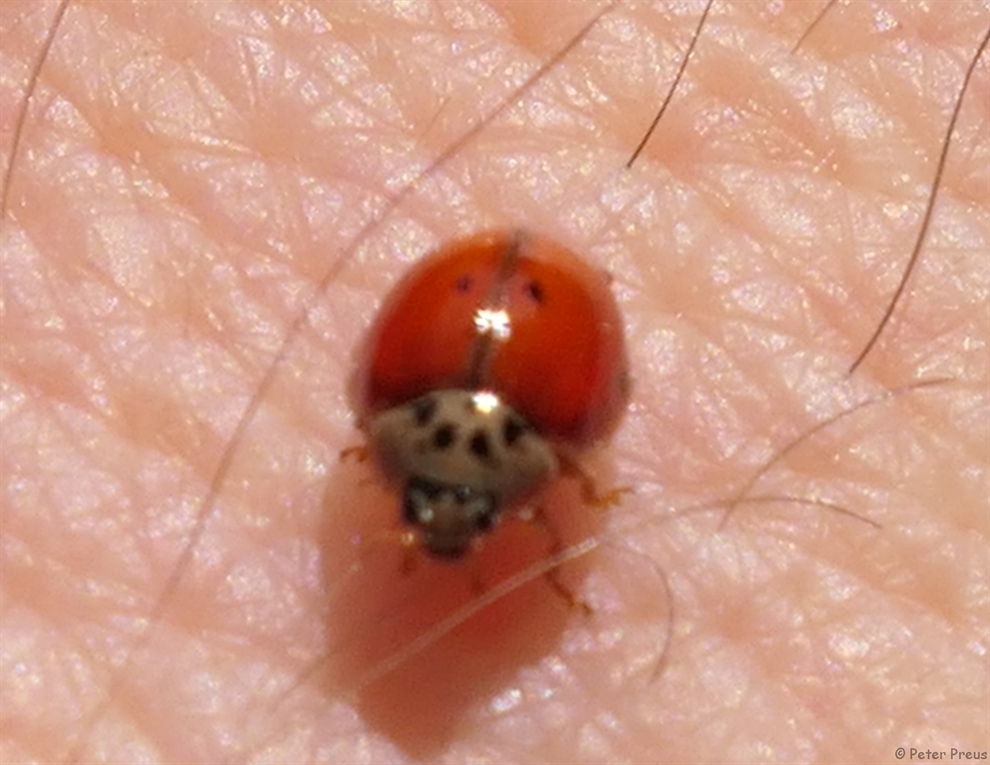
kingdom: Animalia
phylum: Arthropoda
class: Insecta
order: Coleoptera
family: Coccinellidae
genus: Harmonia
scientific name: Harmonia axyridis
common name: Harlequin ladybird
